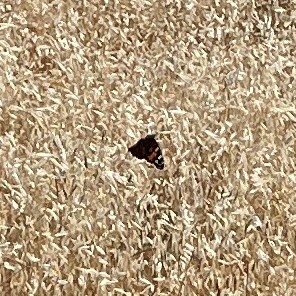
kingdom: Animalia
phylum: Arthropoda
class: Insecta
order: Lepidoptera
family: Nymphalidae
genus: Vanessa
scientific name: Vanessa cardui
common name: Painted lady
